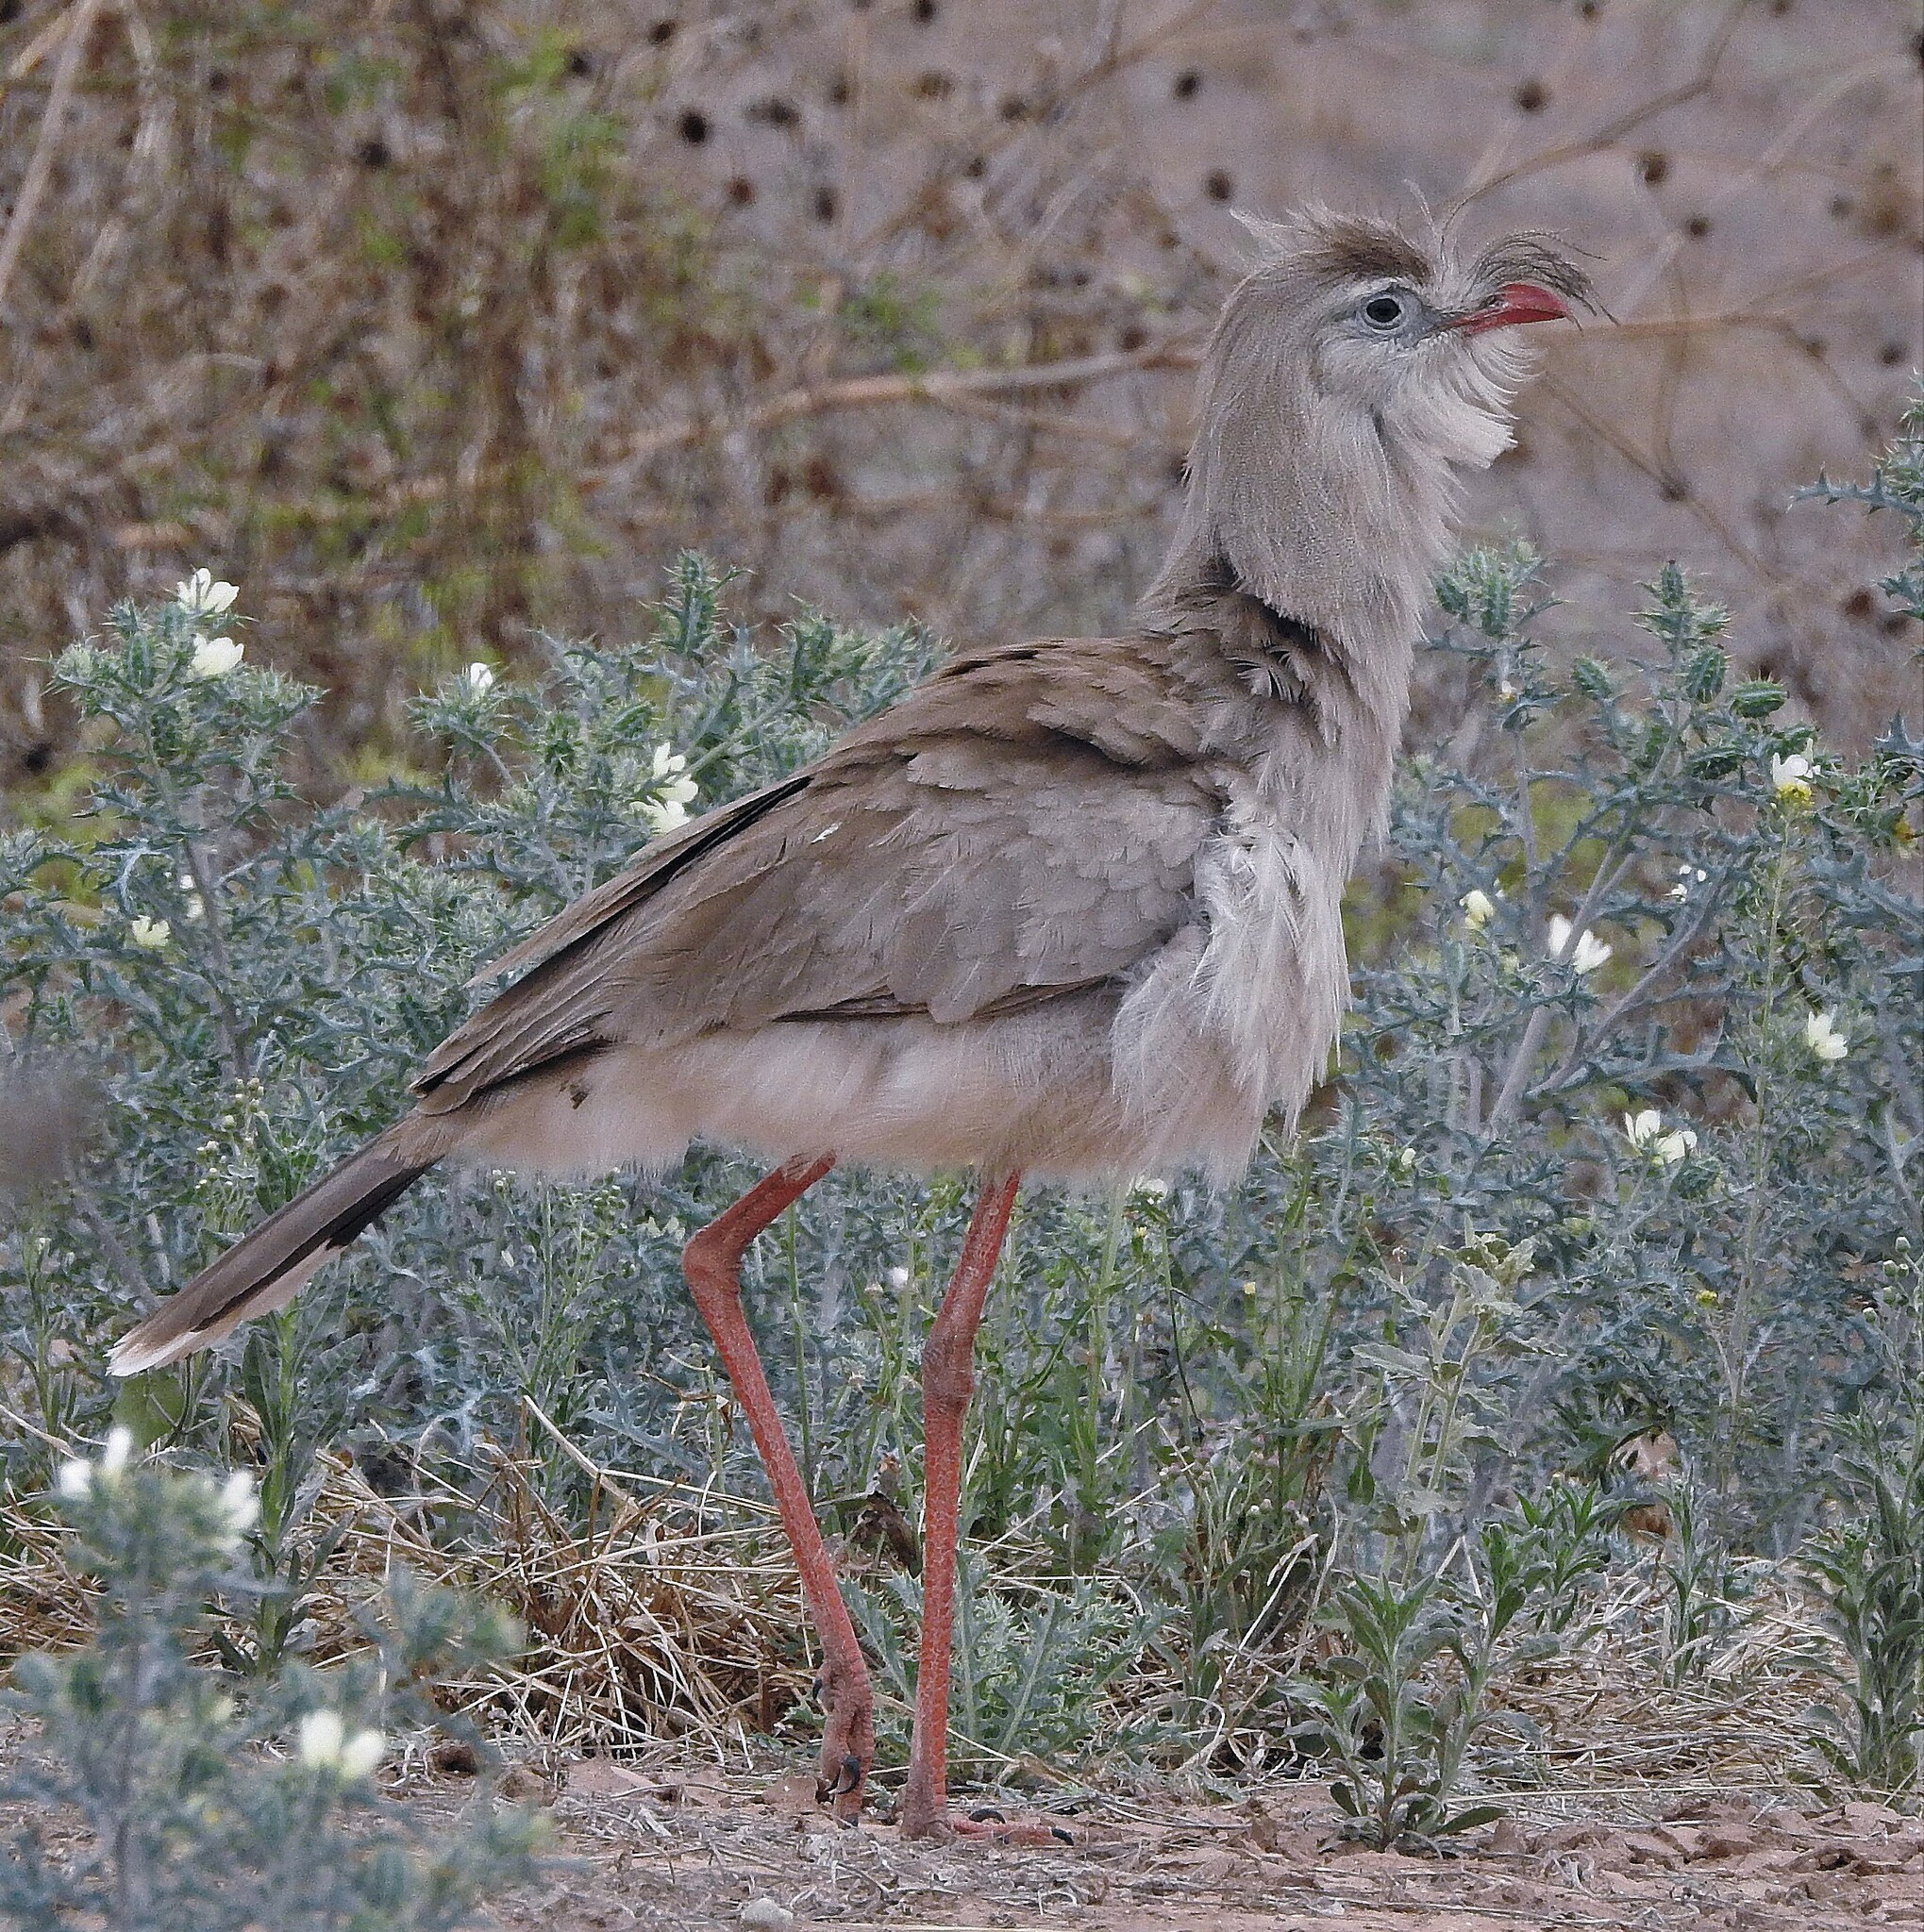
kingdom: Animalia
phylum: Chordata
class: Aves
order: Cariamiformes
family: Cariamidae
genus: Cariama
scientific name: Cariama cristata
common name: Red-legged seriema
